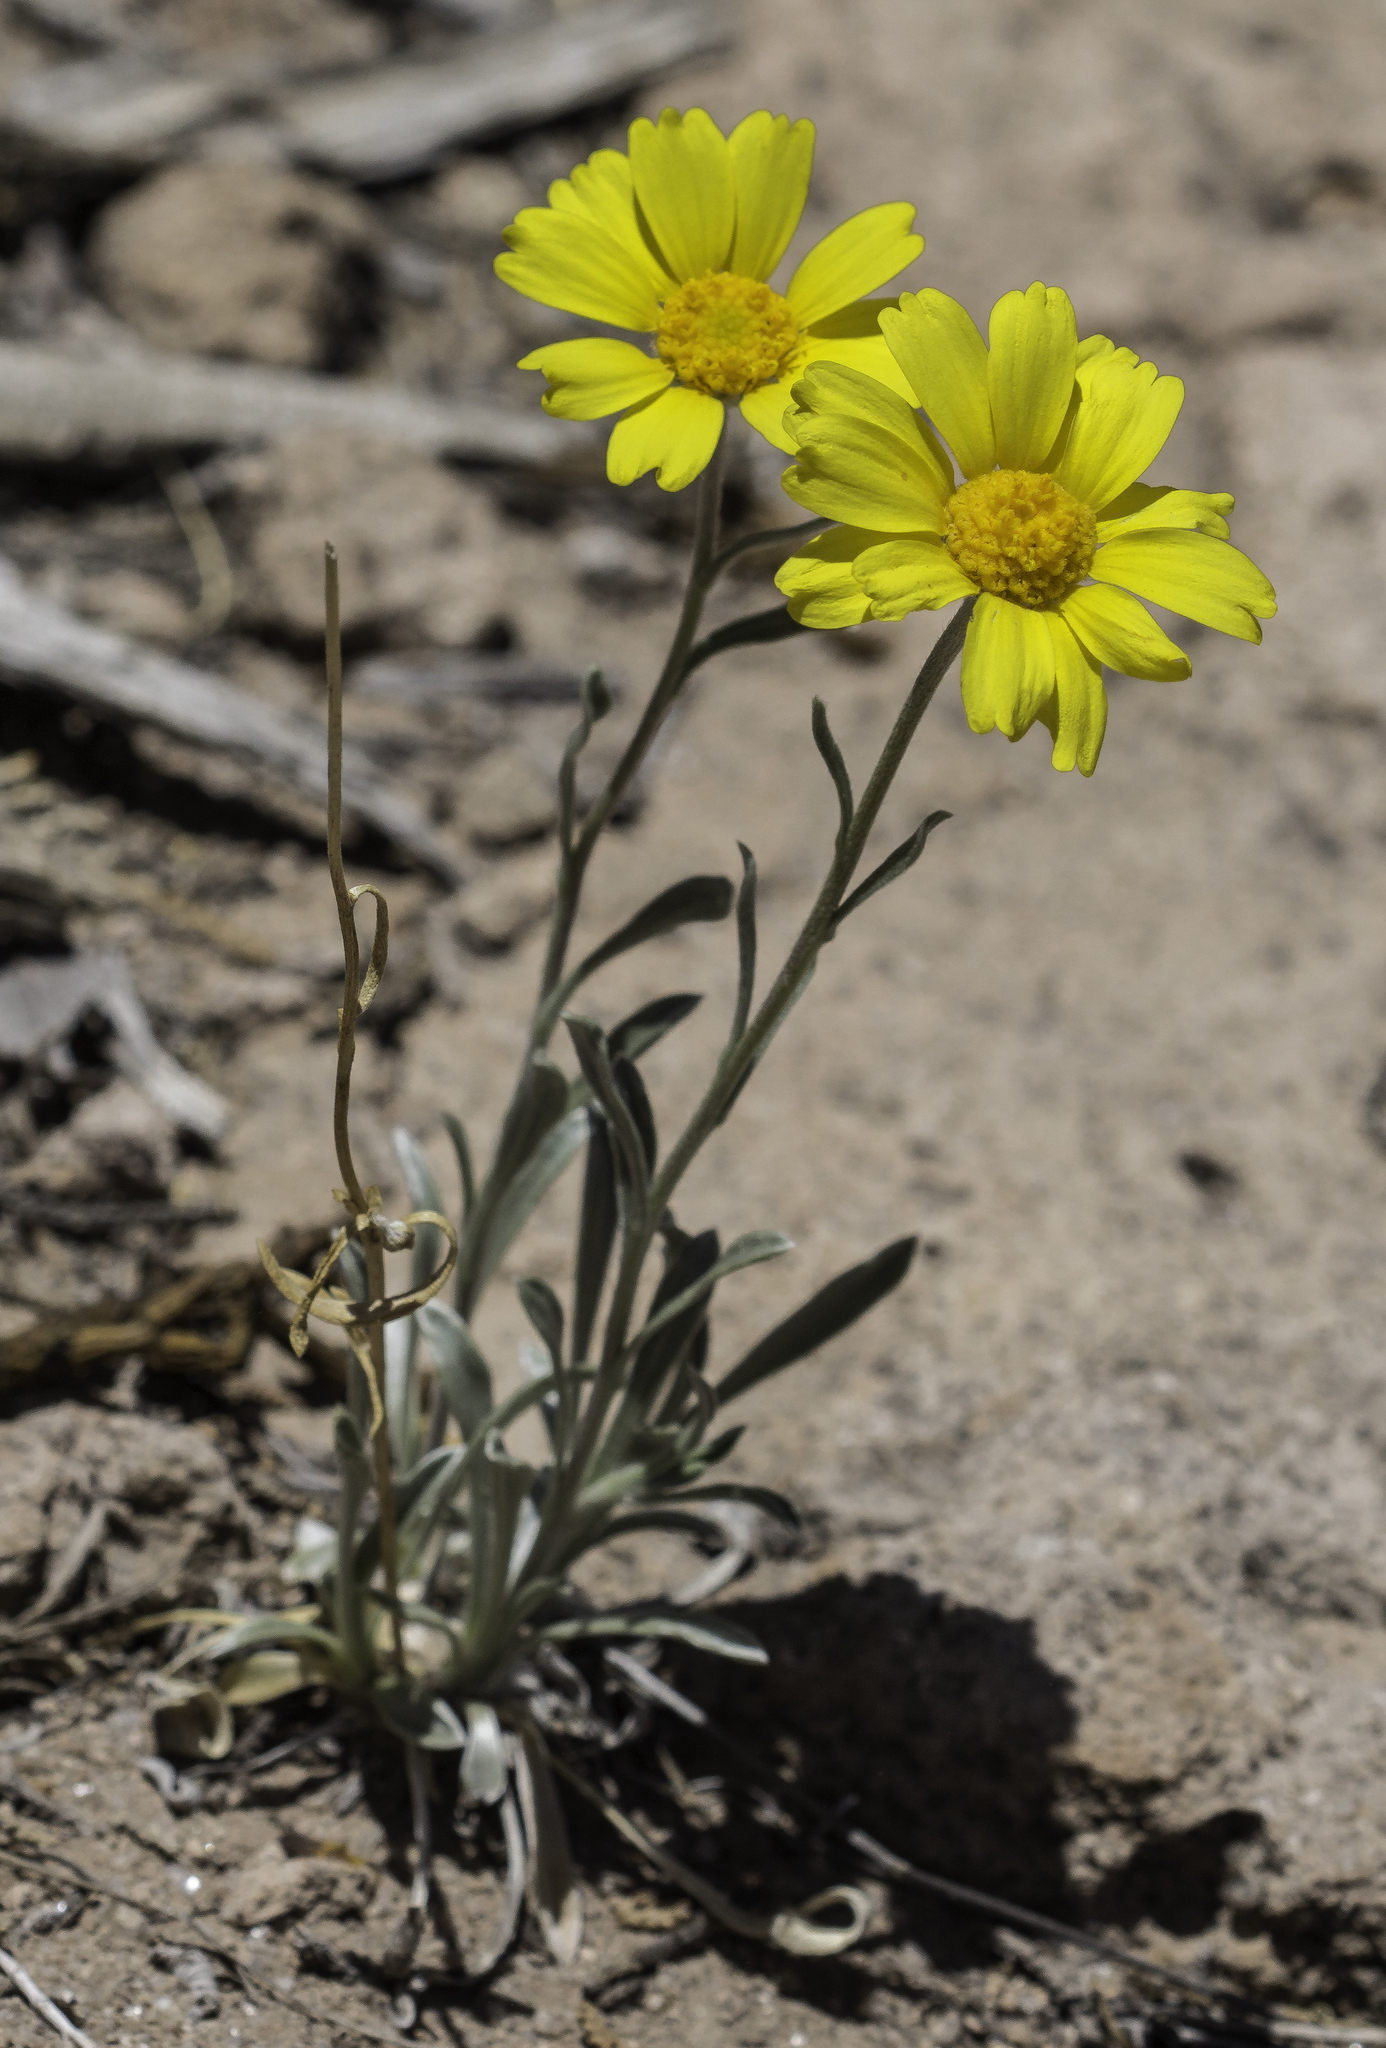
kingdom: Plantae
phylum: Tracheophyta
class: Magnoliopsida
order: Asterales
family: Asteraceae
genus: Tetraneuris
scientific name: Tetraneuris argentea
